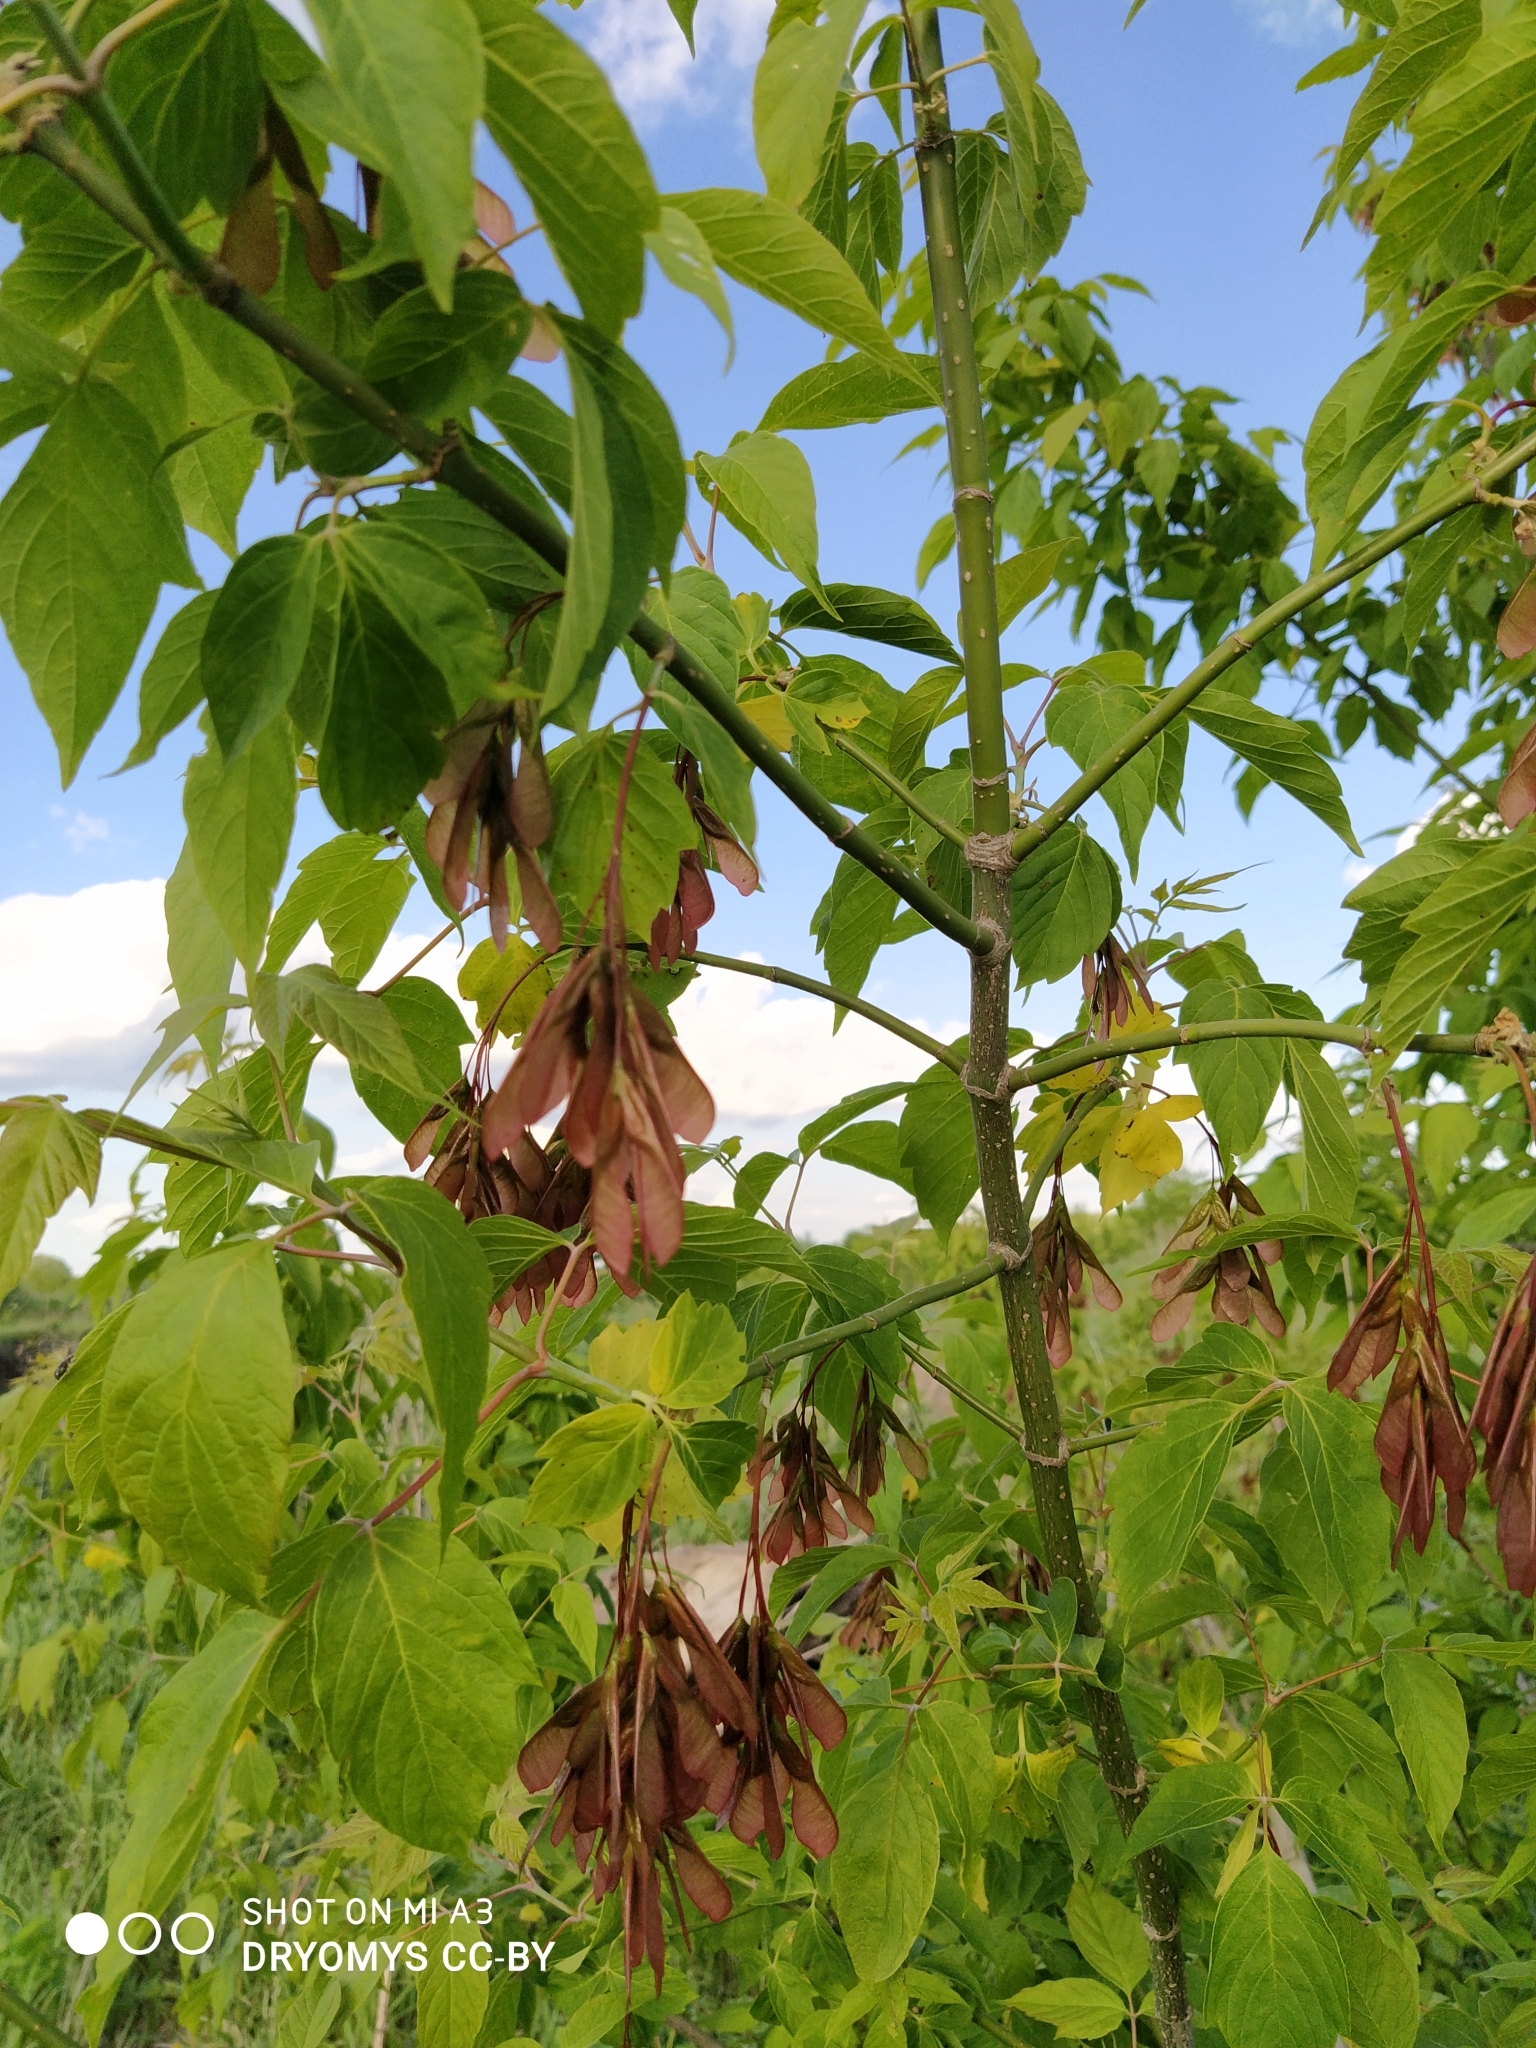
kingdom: Plantae
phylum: Tracheophyta
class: Magnoliopsida
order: Sapindales
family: Sapindaceae
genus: Acer
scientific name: Acer negundo
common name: Ashleaf maple
